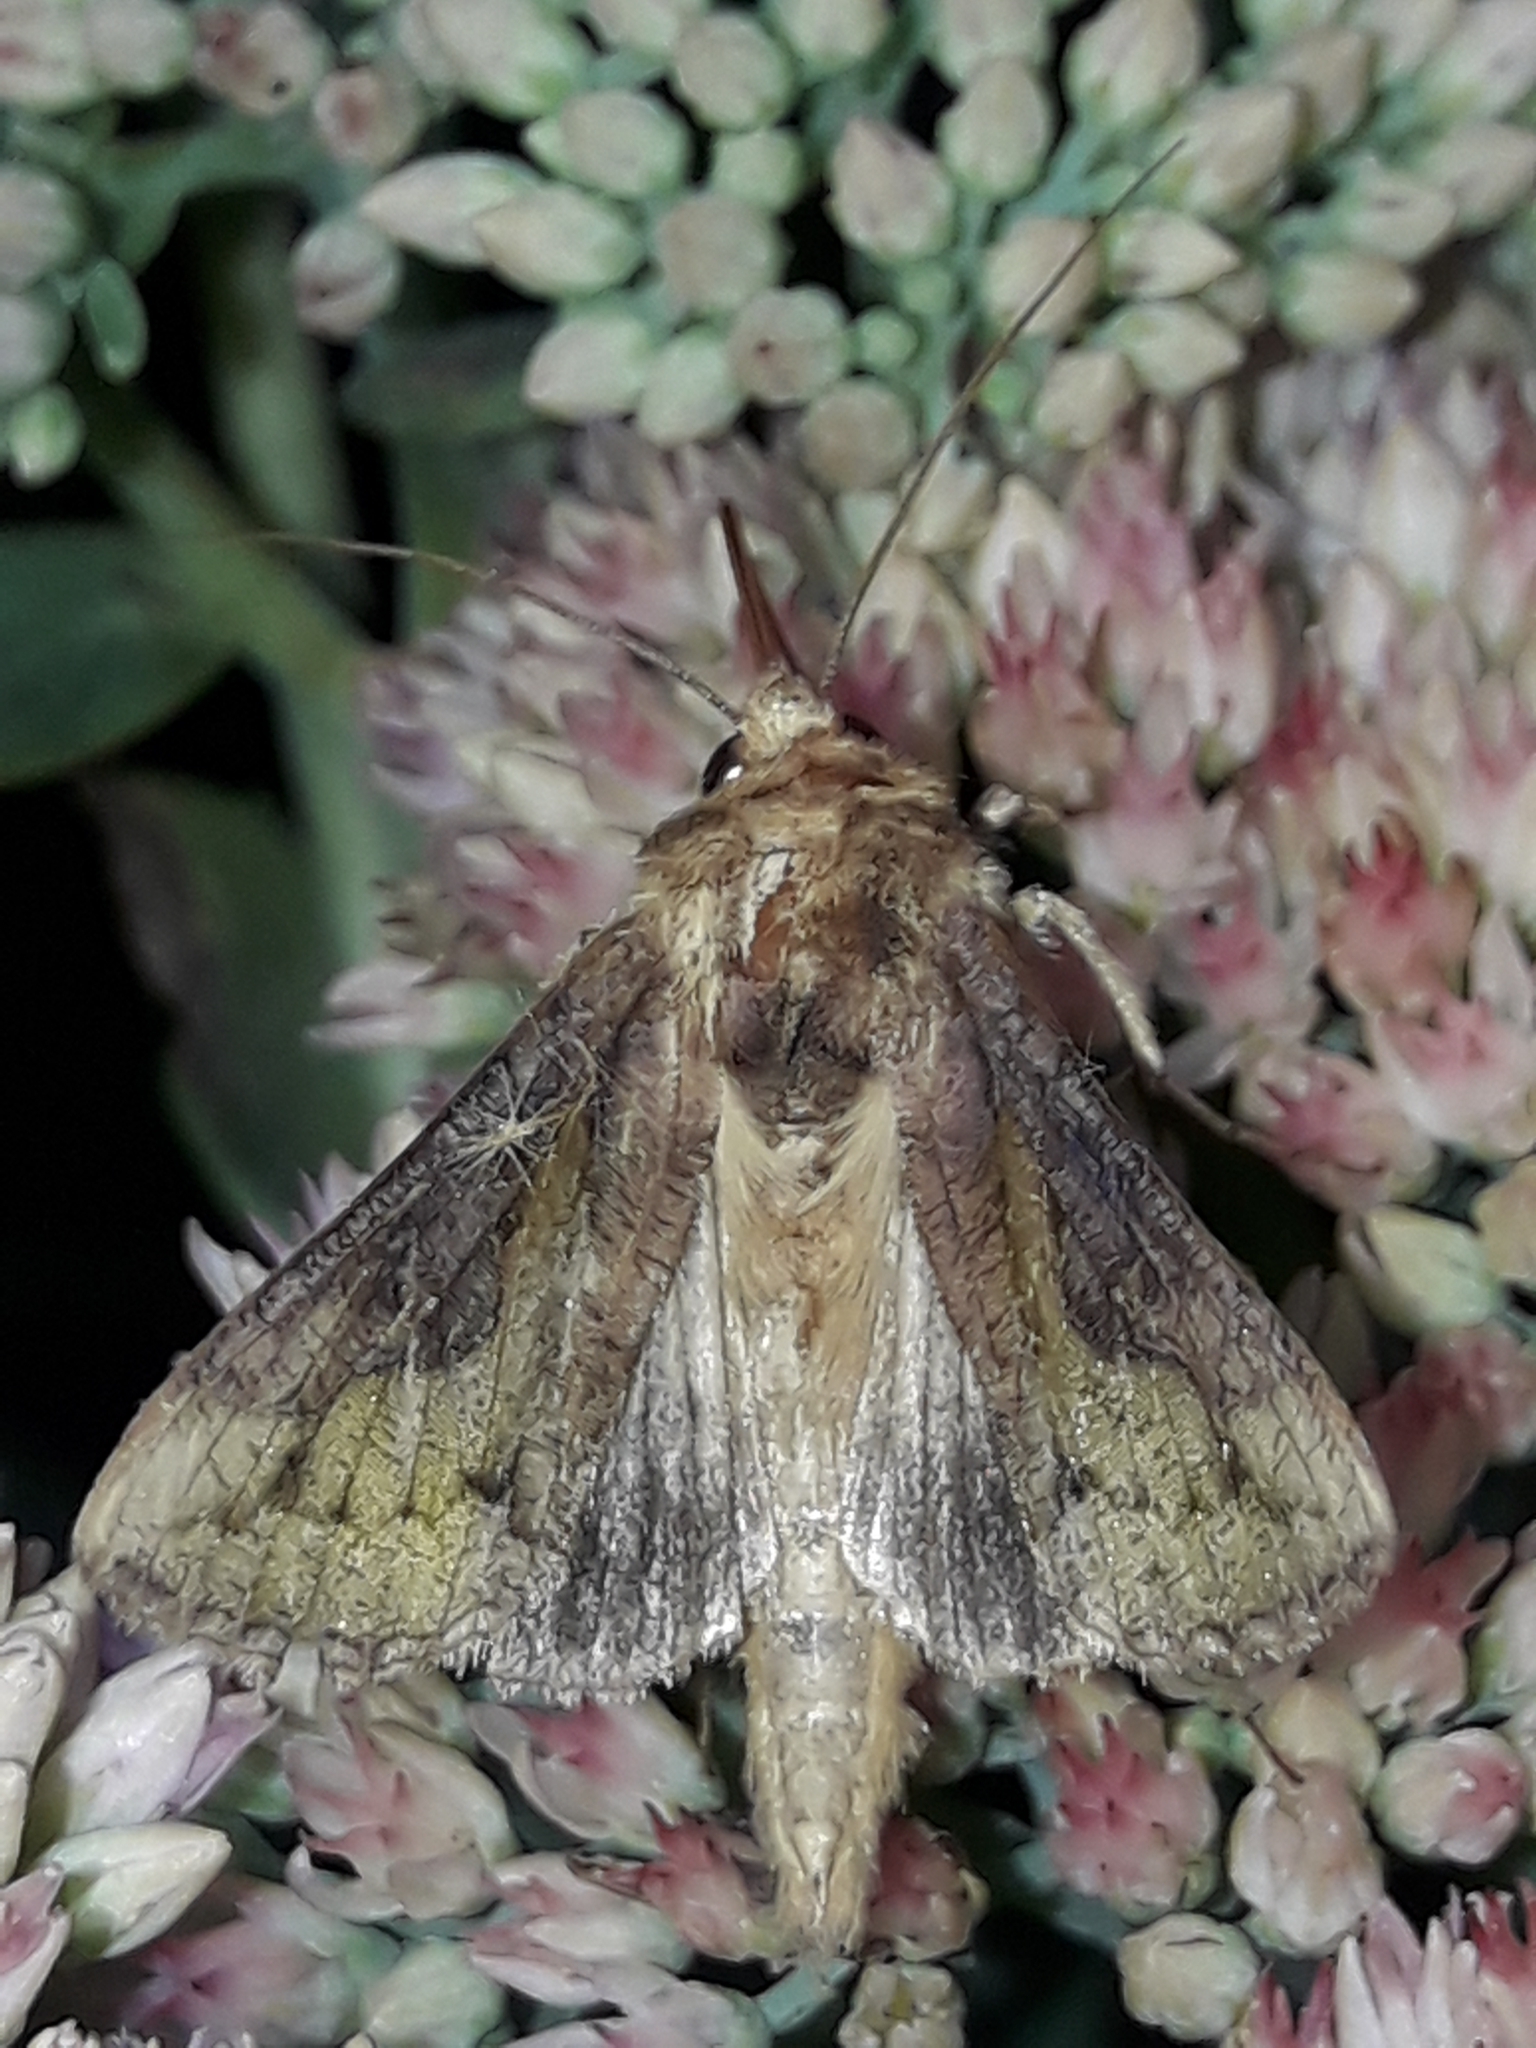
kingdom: Animalia
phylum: Arthropoda
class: Insecta
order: Lepidoptera
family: Noctuidae
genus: Thysanoplusia
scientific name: Thysanoplusia orichalcea
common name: Slender burnished brass, golden plusia
